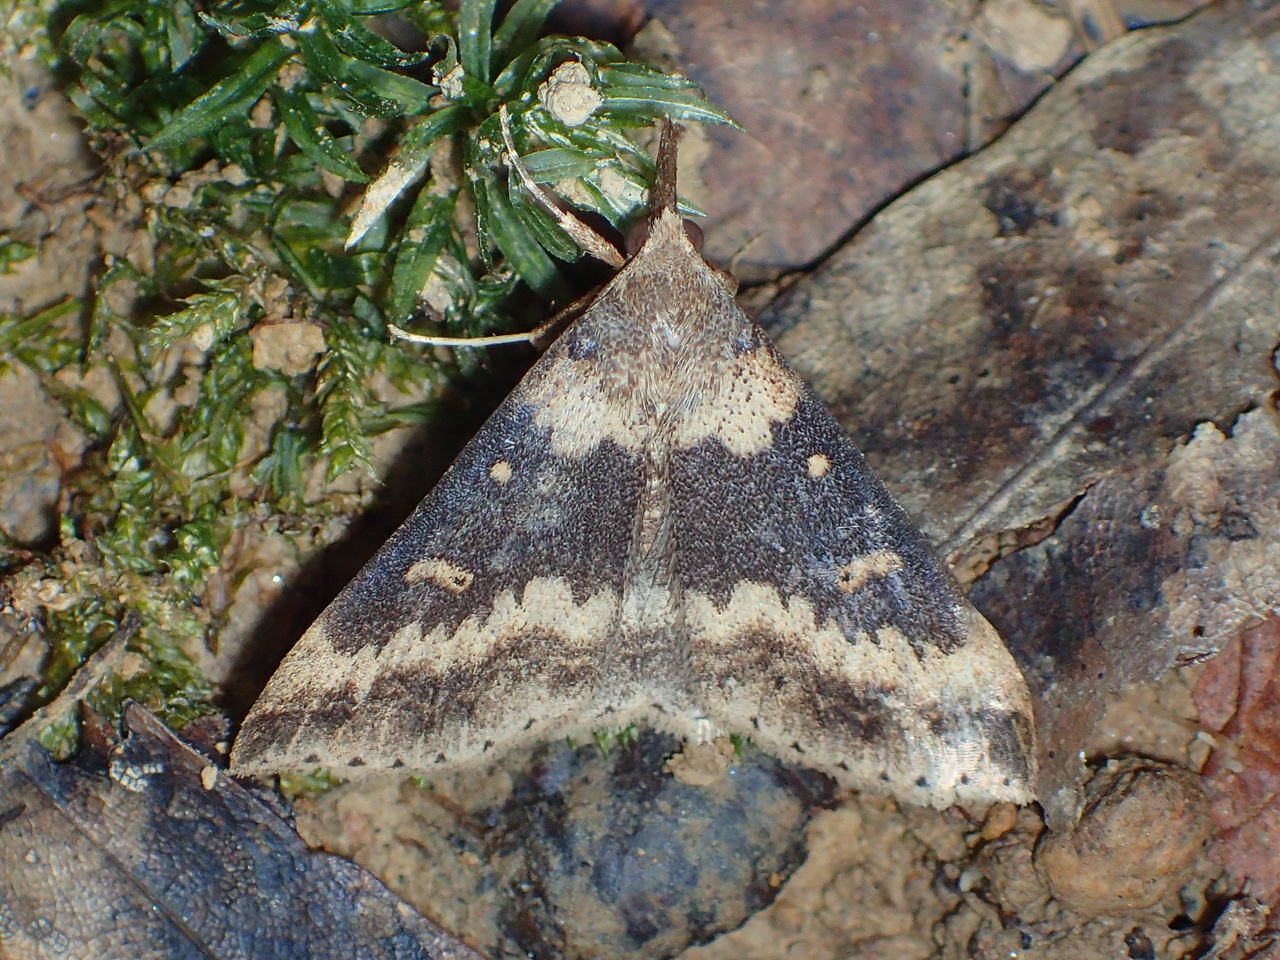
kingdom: Animalia
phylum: Arthropoda
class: Insecta
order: Lepidoptera
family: Erebidae
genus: Renia
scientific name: Renia discoloralis
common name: Discolored renia moth
